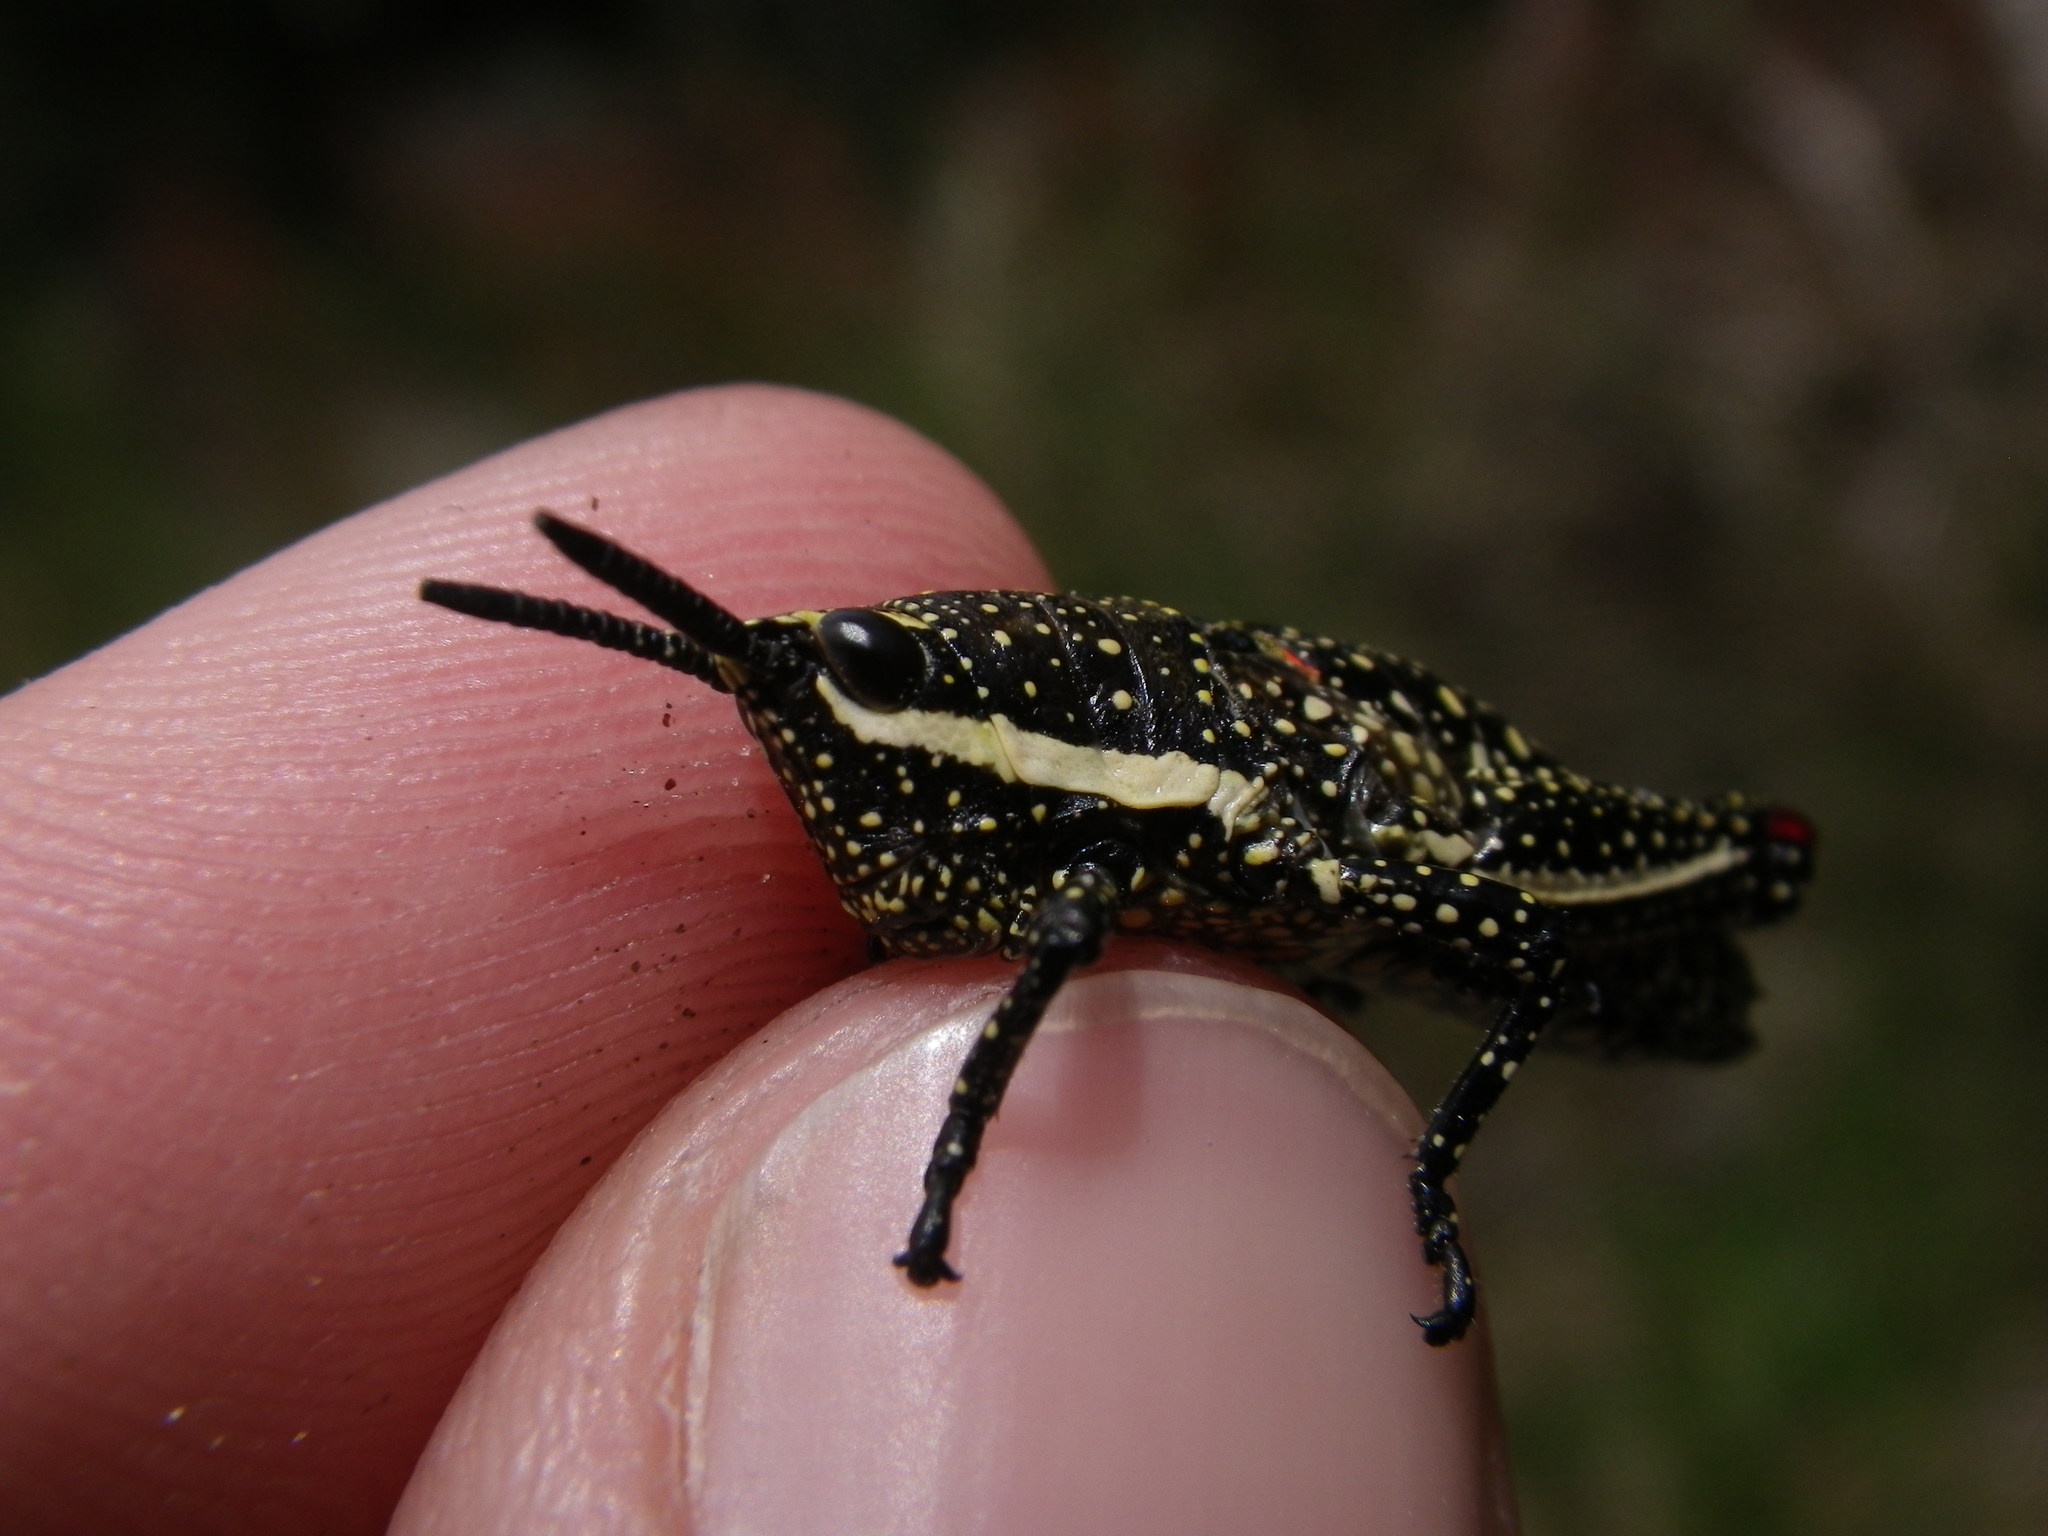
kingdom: Animalia
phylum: Arthropoda
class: Insecta
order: Orthoptera
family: Pyrgomorphidae
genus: Monistria
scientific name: Monistria concinna
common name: Southern pyrgomorph
